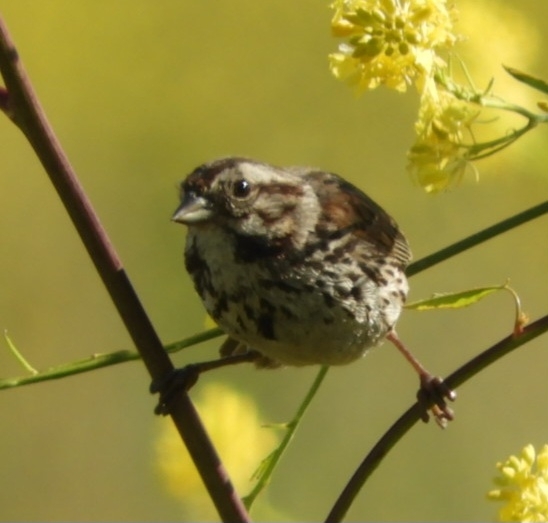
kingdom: Animalia
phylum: Chordata
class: Aves
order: Passeriformes
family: Passerellidae
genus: Melospiza
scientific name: Melospiza melodia
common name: Song sparrow
